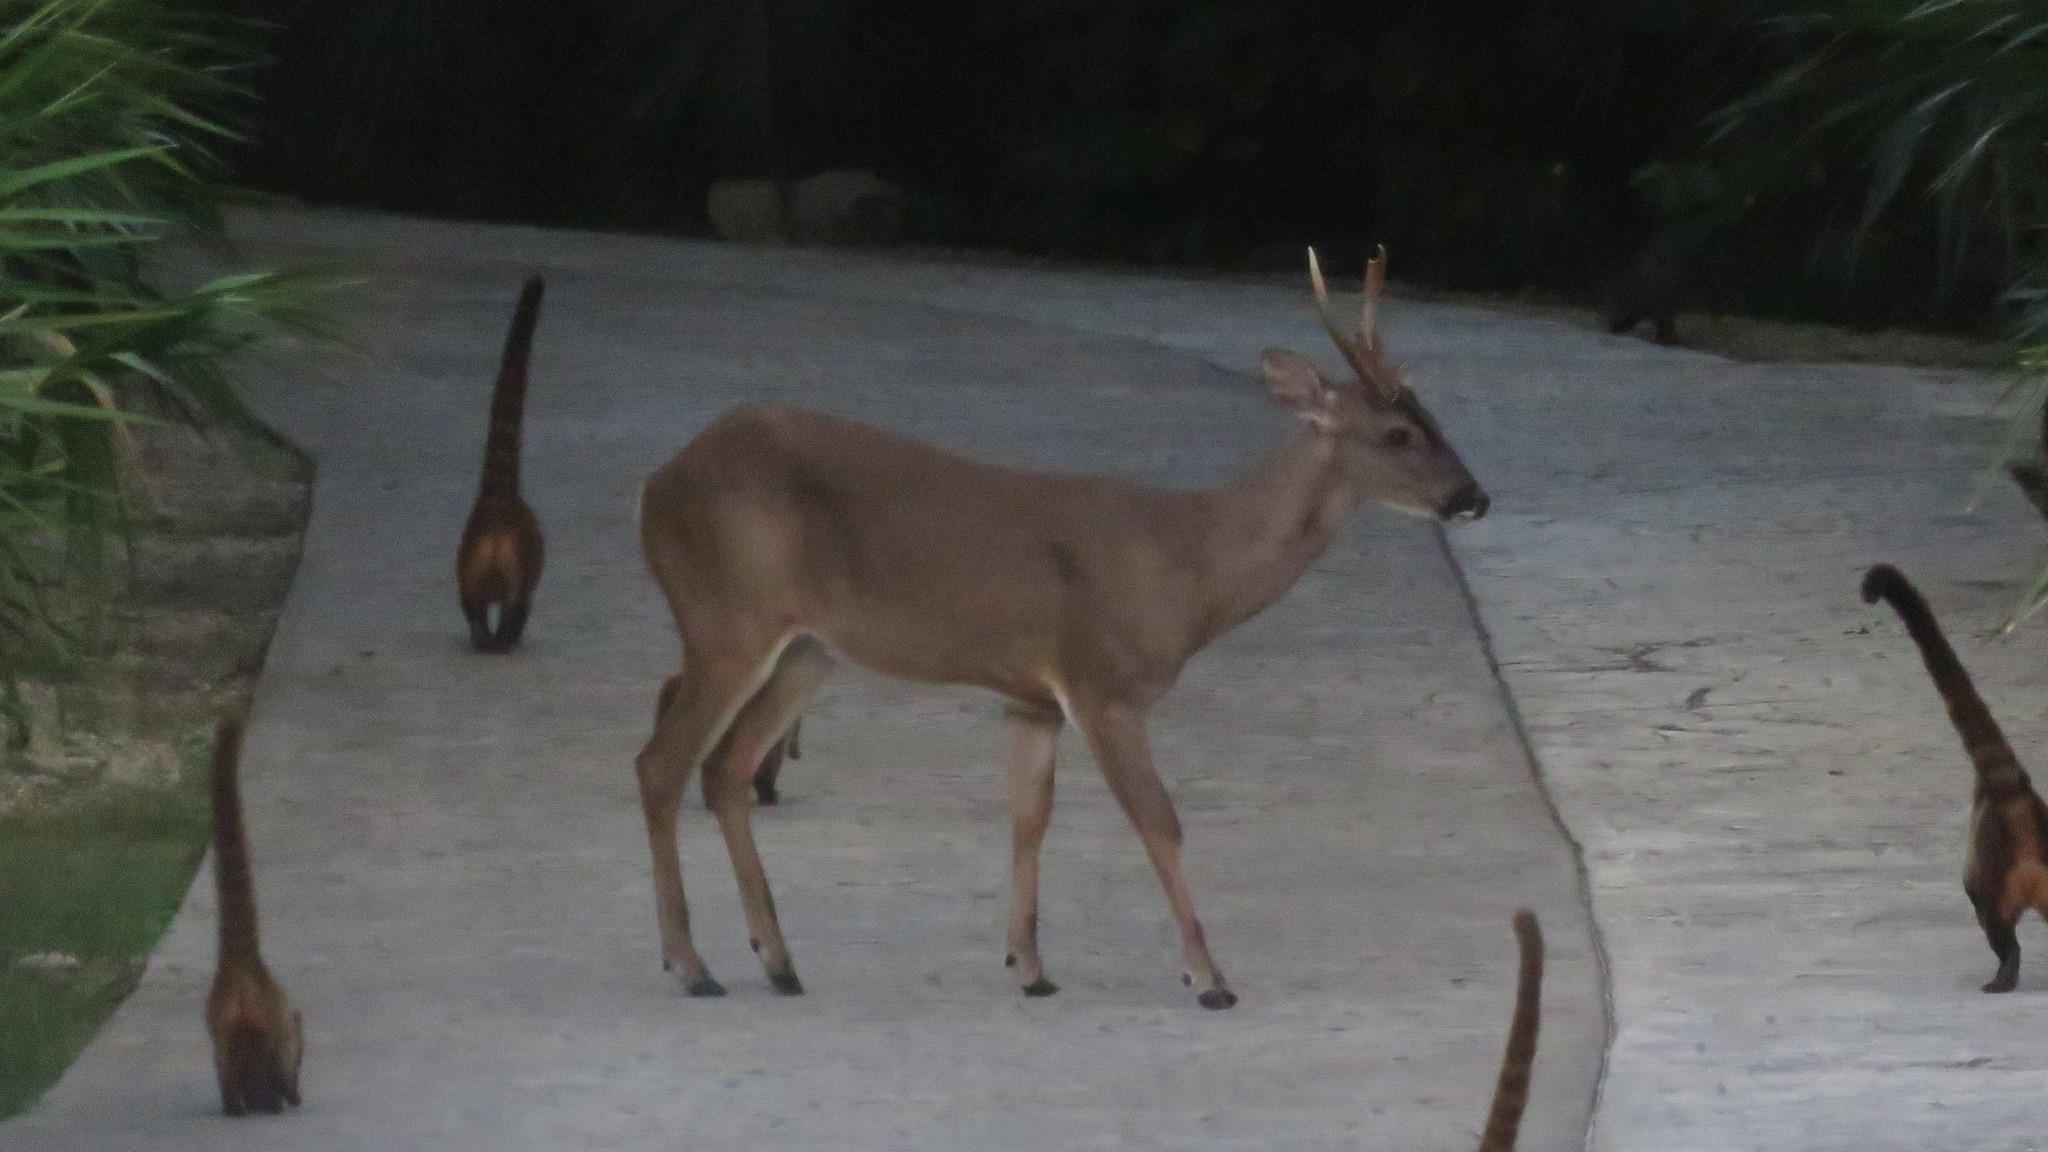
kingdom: Animalia
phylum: Chordata
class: Mammalia
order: Artiodactyla
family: Cervidae
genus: Odocoileus
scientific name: Odocoileus virginianus
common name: White-tailed deer
